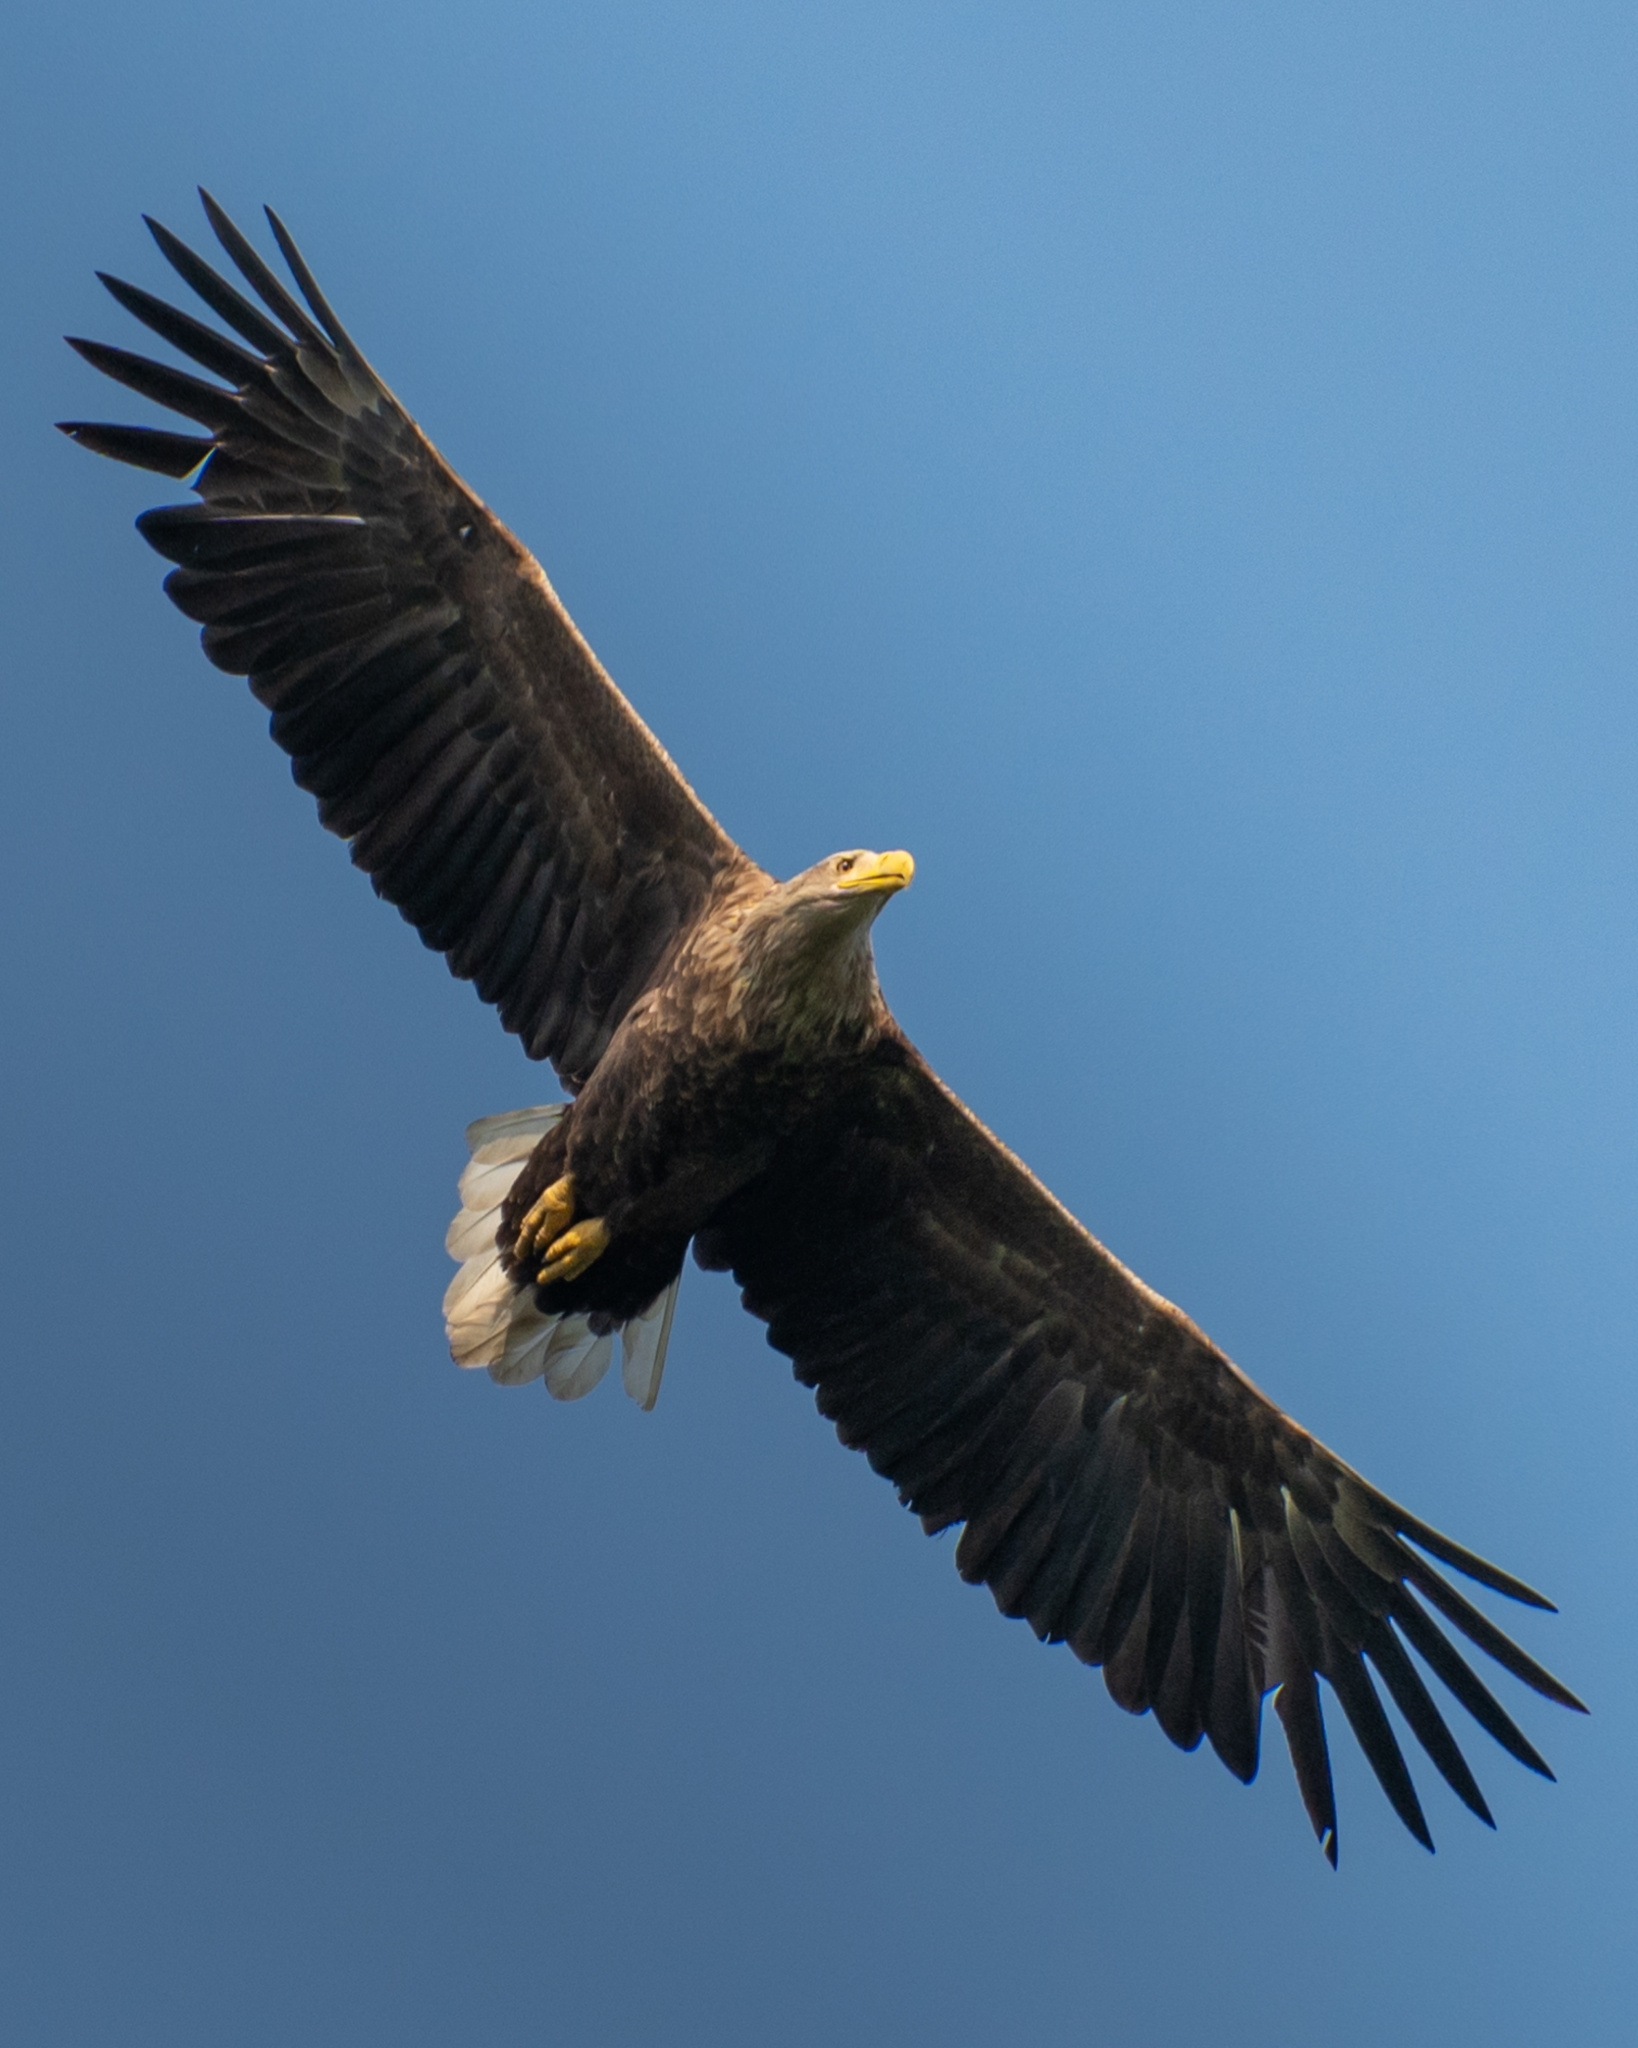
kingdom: Animalia
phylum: Chordata
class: Aves
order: Accipitriformes
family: Accipitridae
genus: Haliaeetus
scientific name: Haliaeetus albicilla
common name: White-tailed eagle
